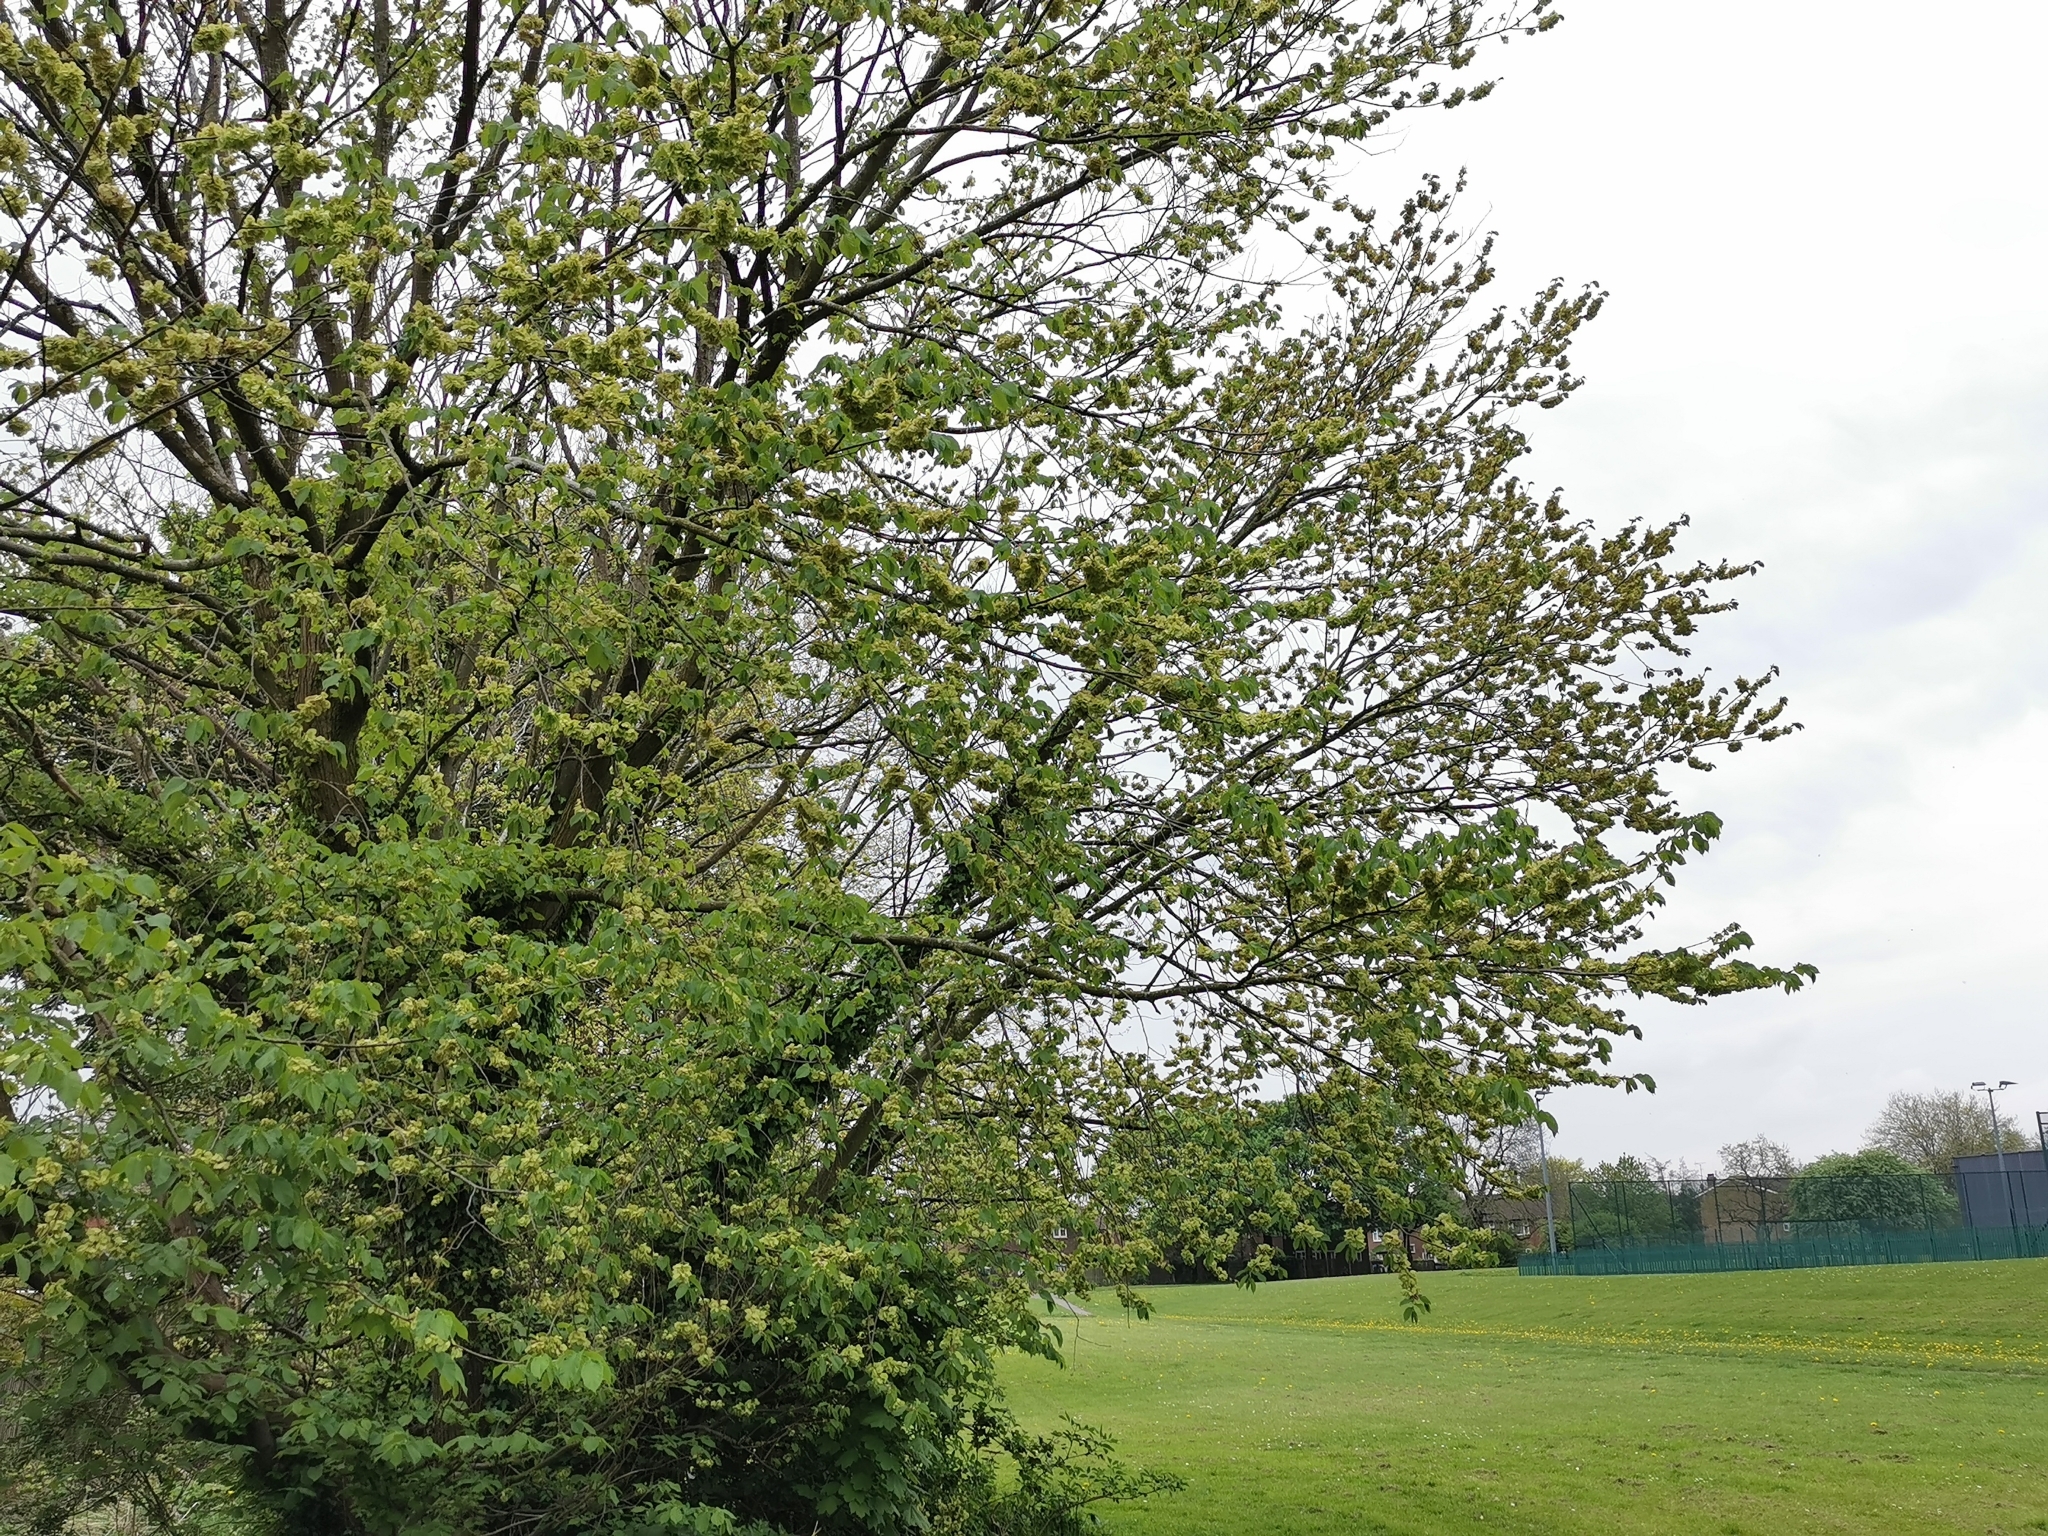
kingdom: Plantae
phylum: Tracheophyta
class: Magnoliopsida
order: Rosales
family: Ulmaceae
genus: Ulmus
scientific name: Ulmus glabra
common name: Wych elm
